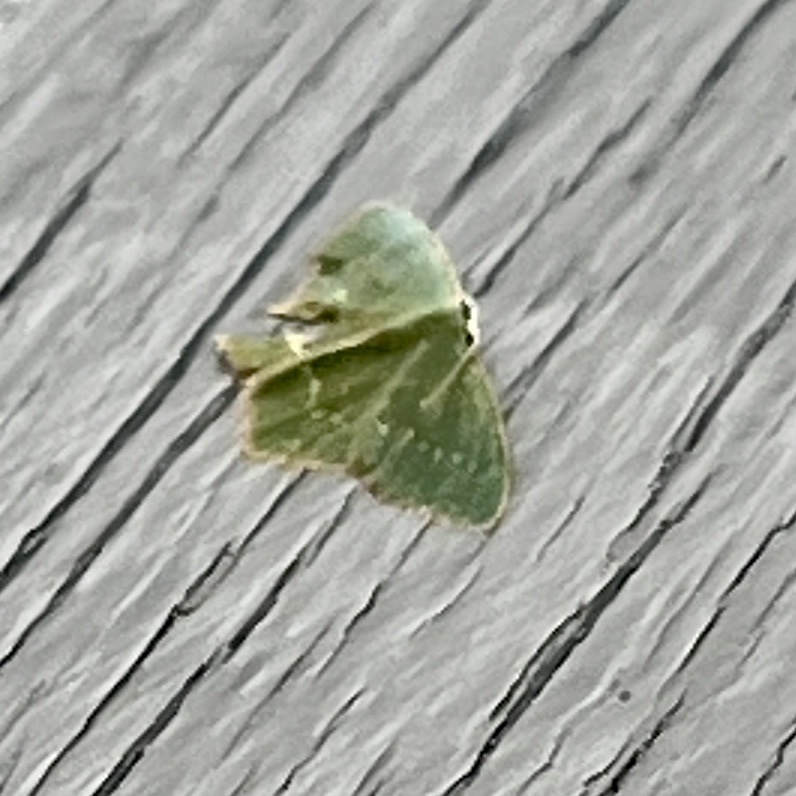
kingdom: Animalia
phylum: Arthropoda
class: Insecta
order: Lepidoptera
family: Geometridae
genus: Thalera
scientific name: Thalera pistasciaria
